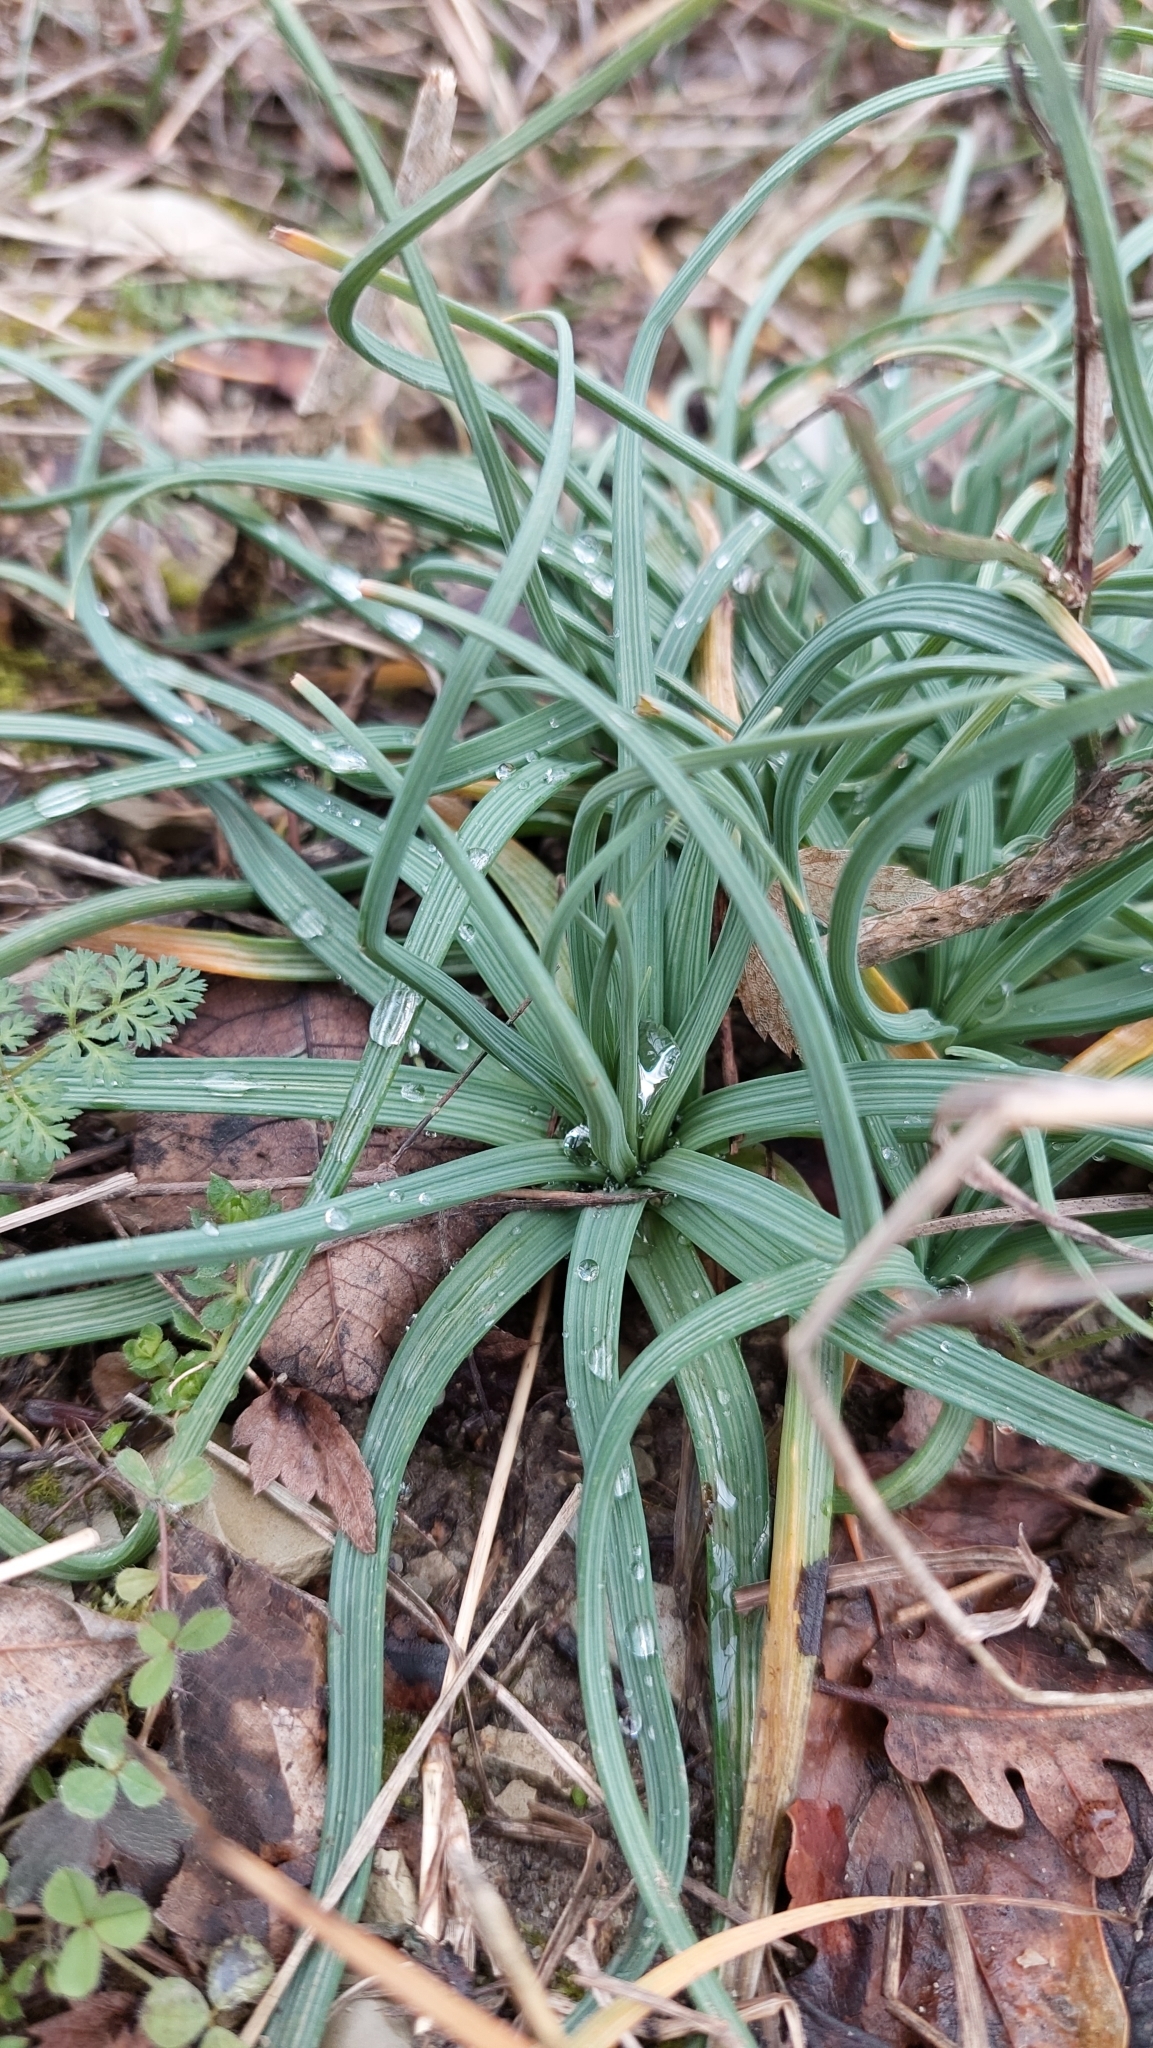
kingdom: Plantae
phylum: Tracheophyta
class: Liliopsida
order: Asparagales
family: Asphodelaceae
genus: Asphodeline
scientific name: Asphodeline lutea
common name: Yellow asphodel
